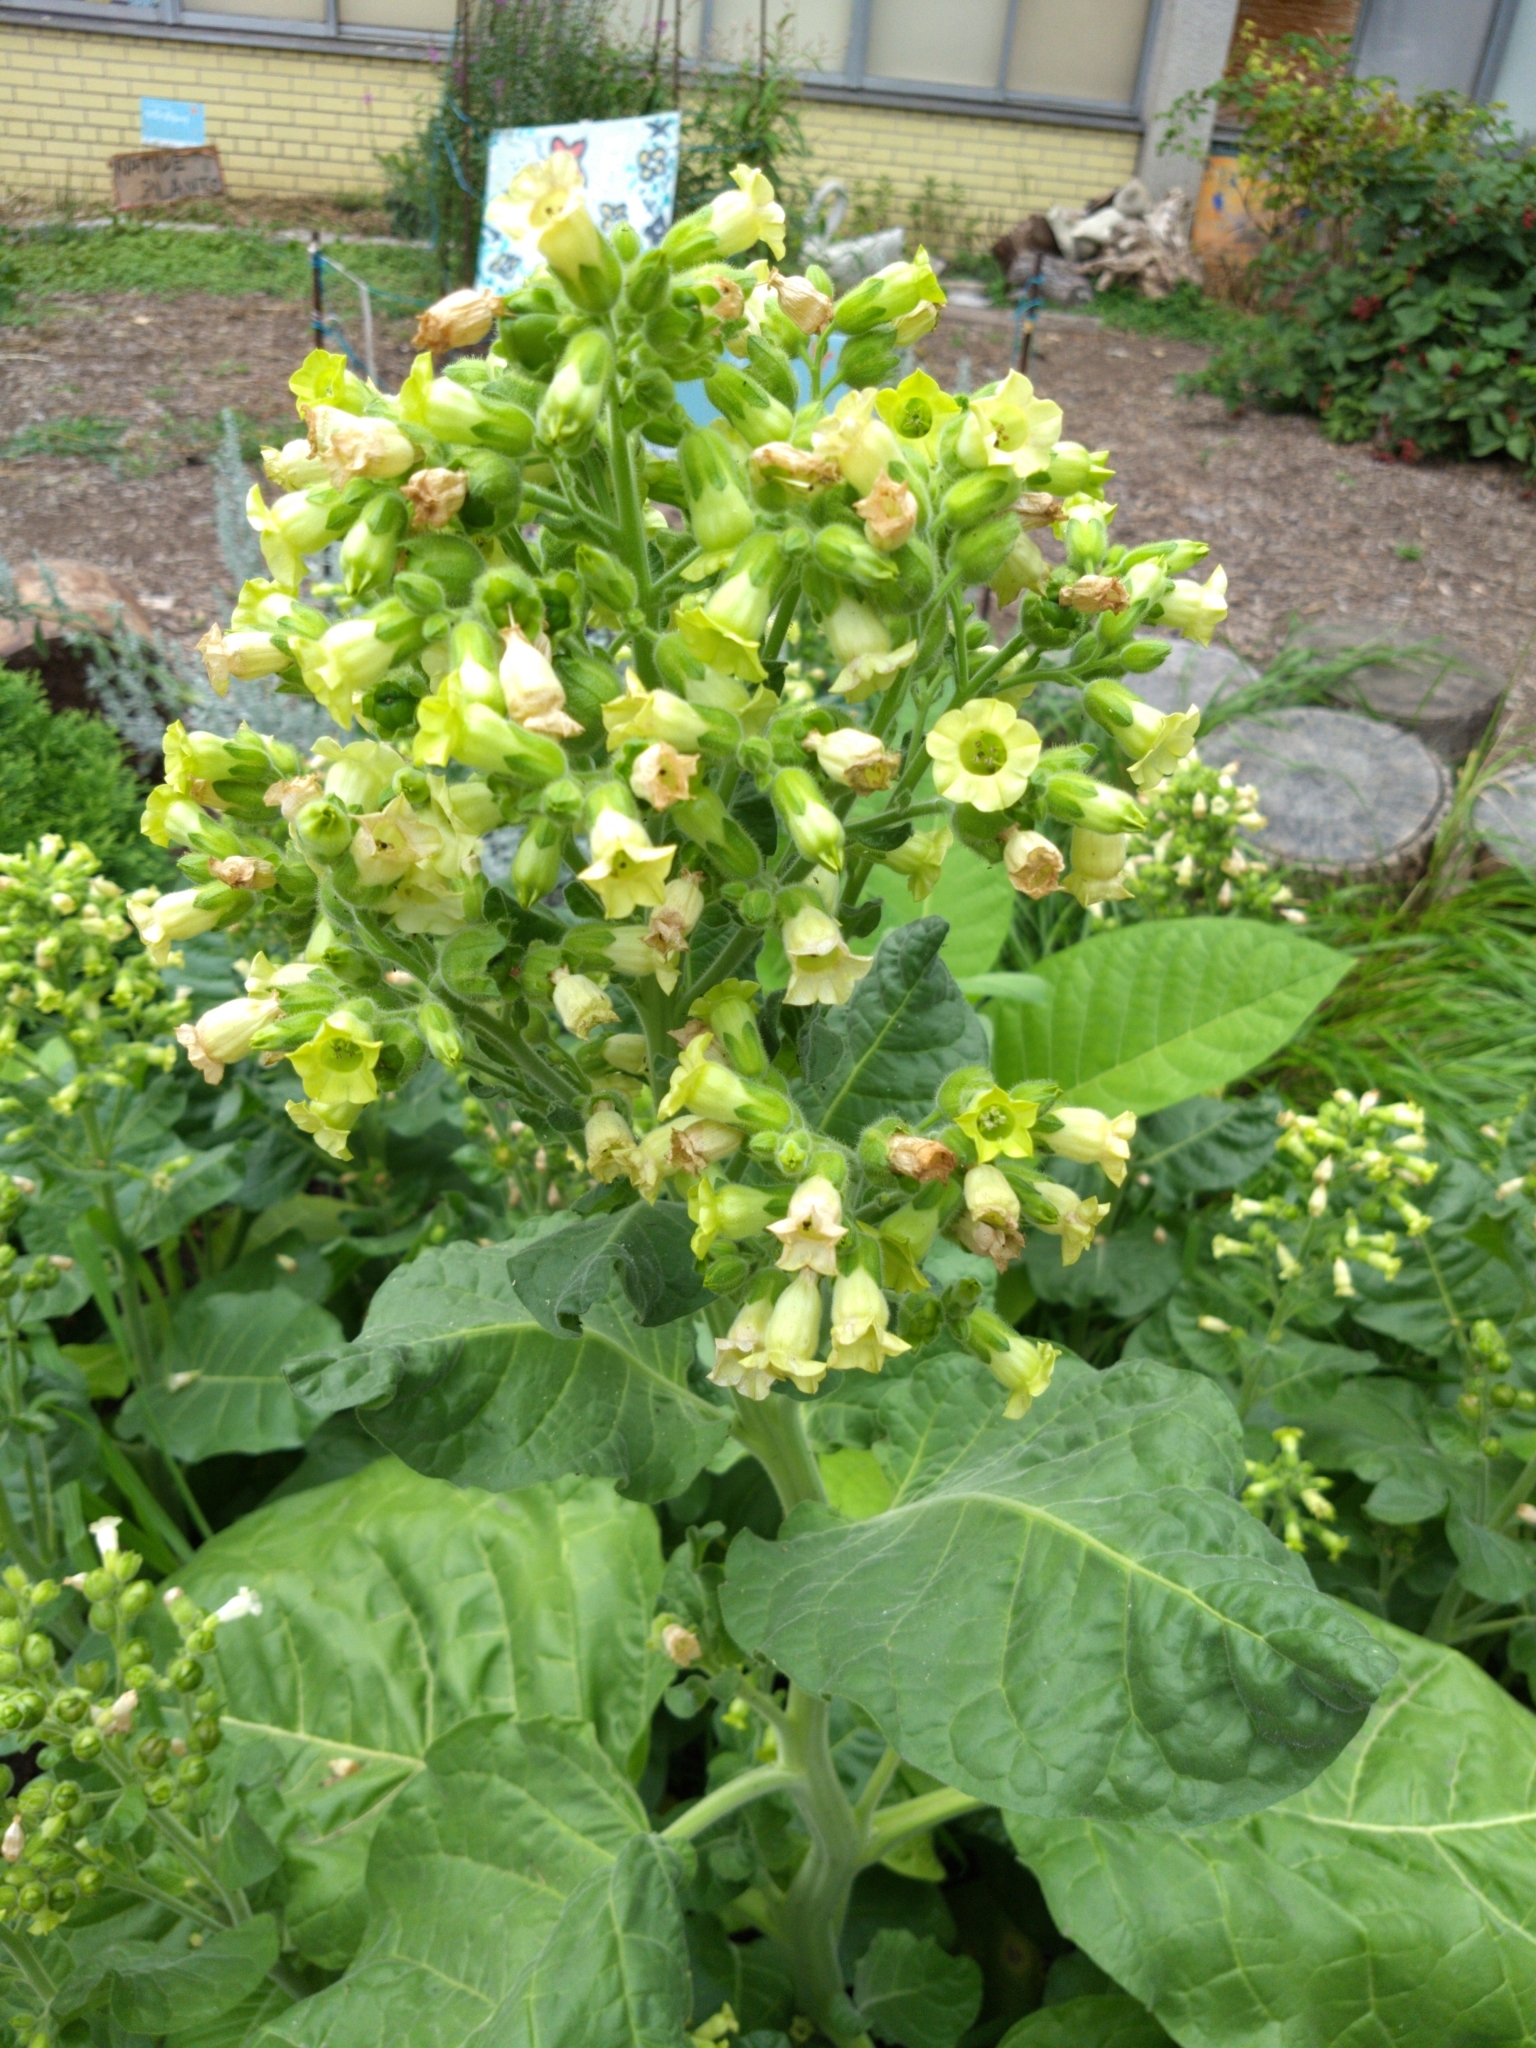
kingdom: Plantae
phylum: Tracheophyta
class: Magnoliopsida
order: Solanales
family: Solanaceae
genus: Nicotiana
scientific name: Nicotiana rustica
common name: Wild tobacco
